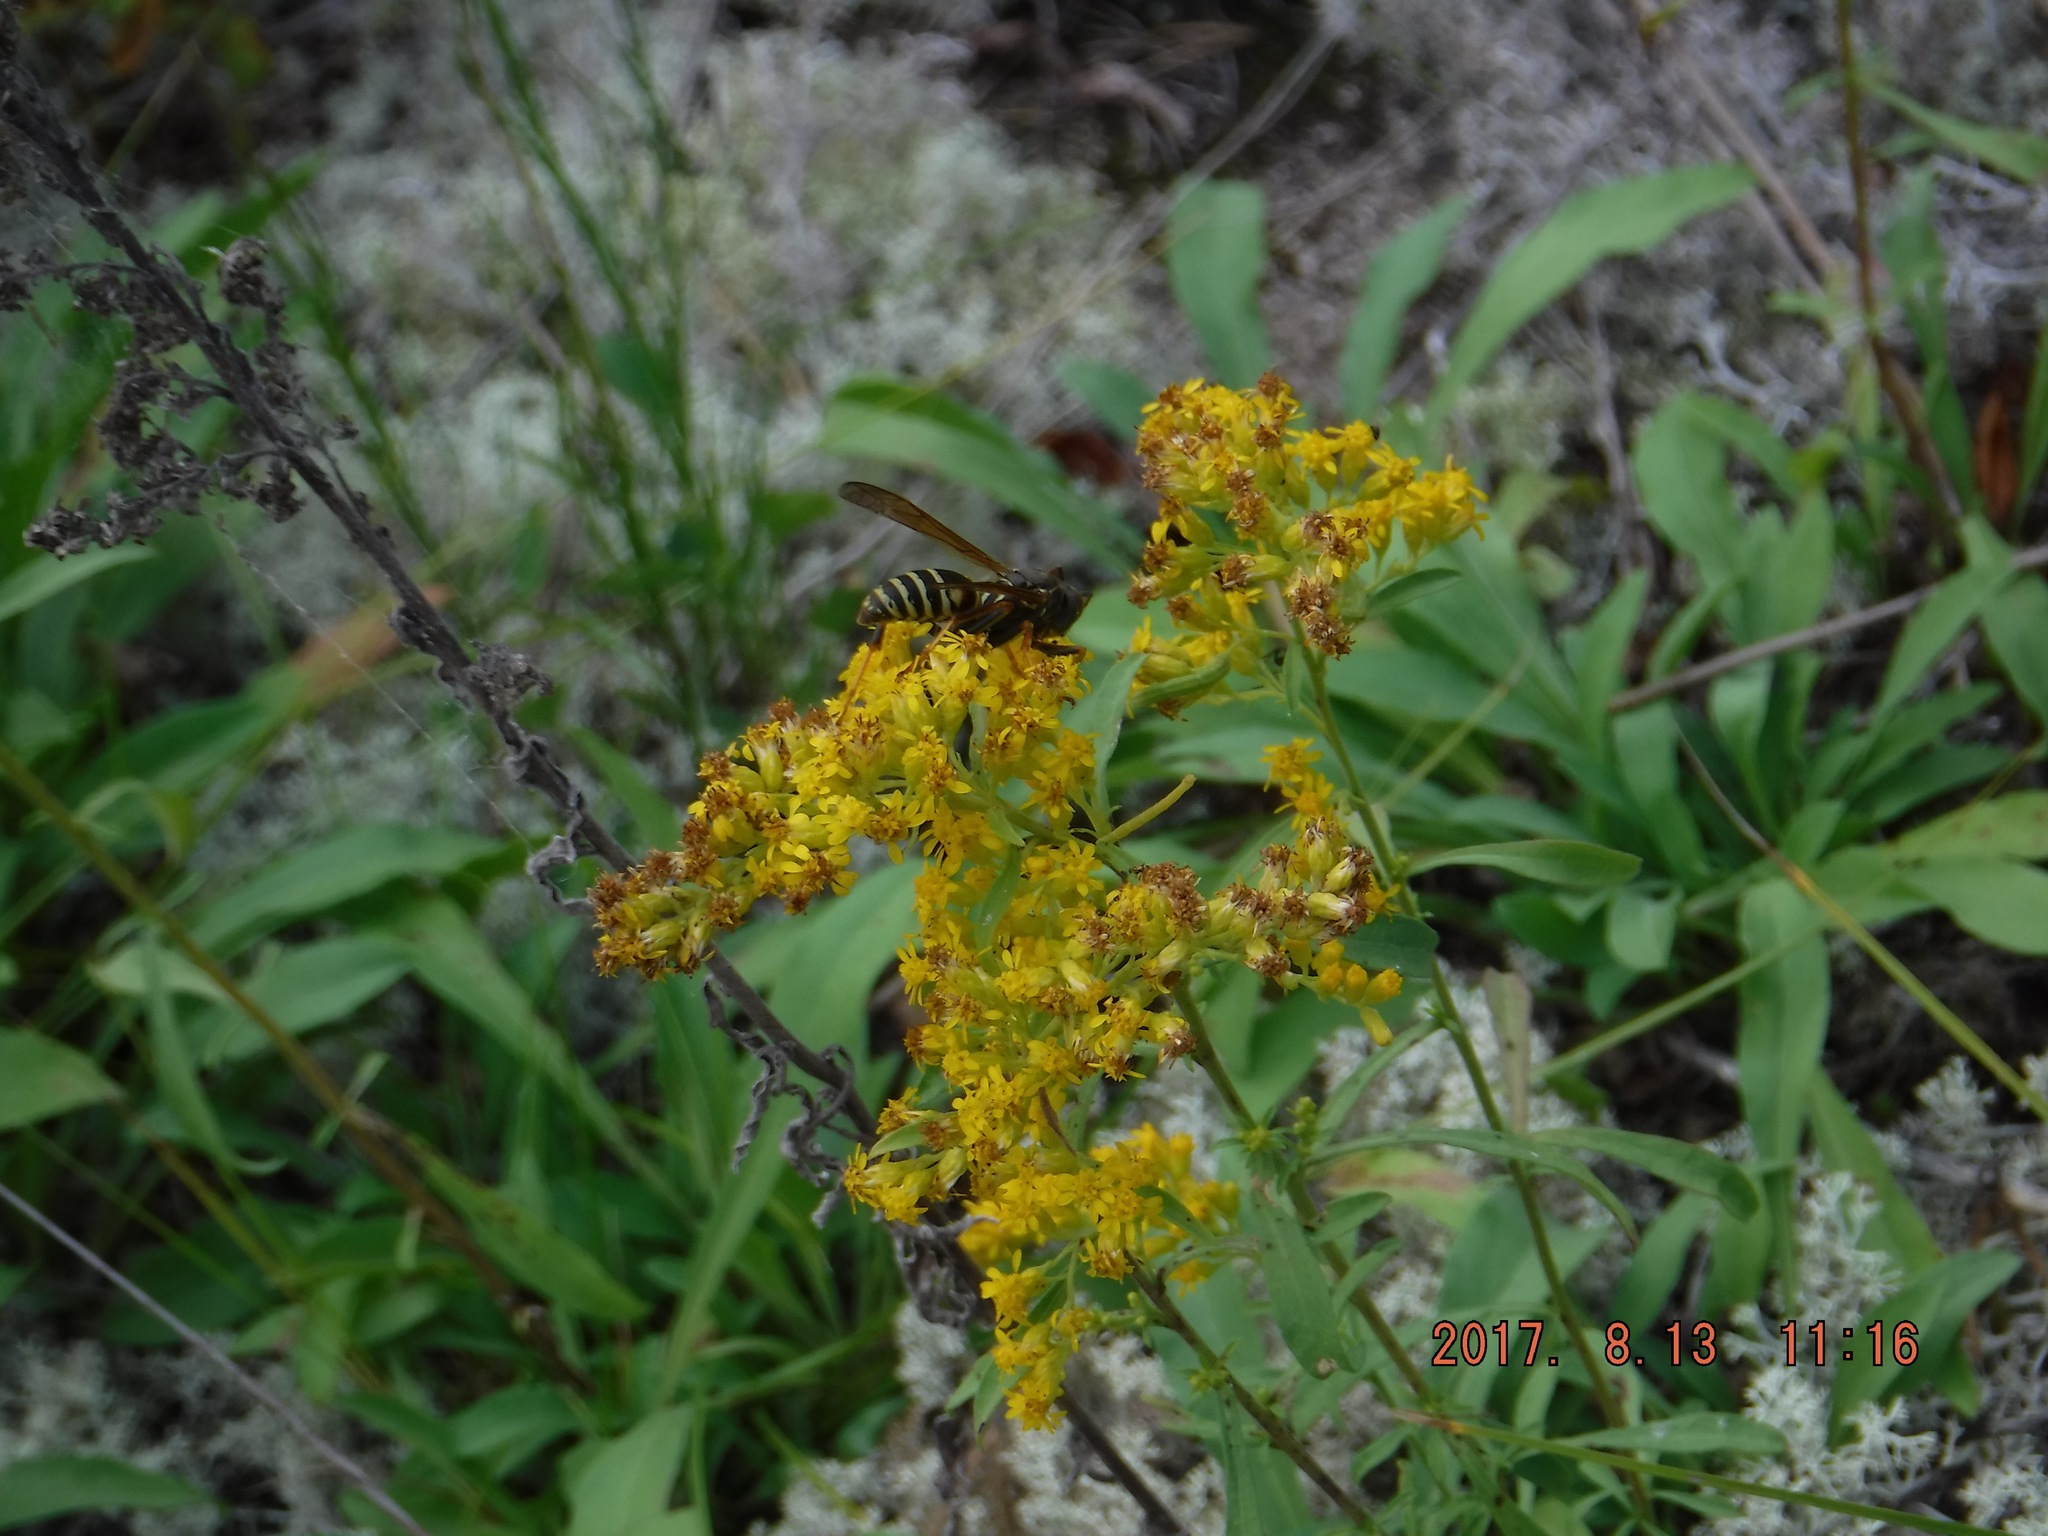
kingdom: Animalia
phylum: Arthropoda
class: Insecta
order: Hymenoptera
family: Eumenidae
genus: Polistes
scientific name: Polistes fuscatus
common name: Dark paper wasp
